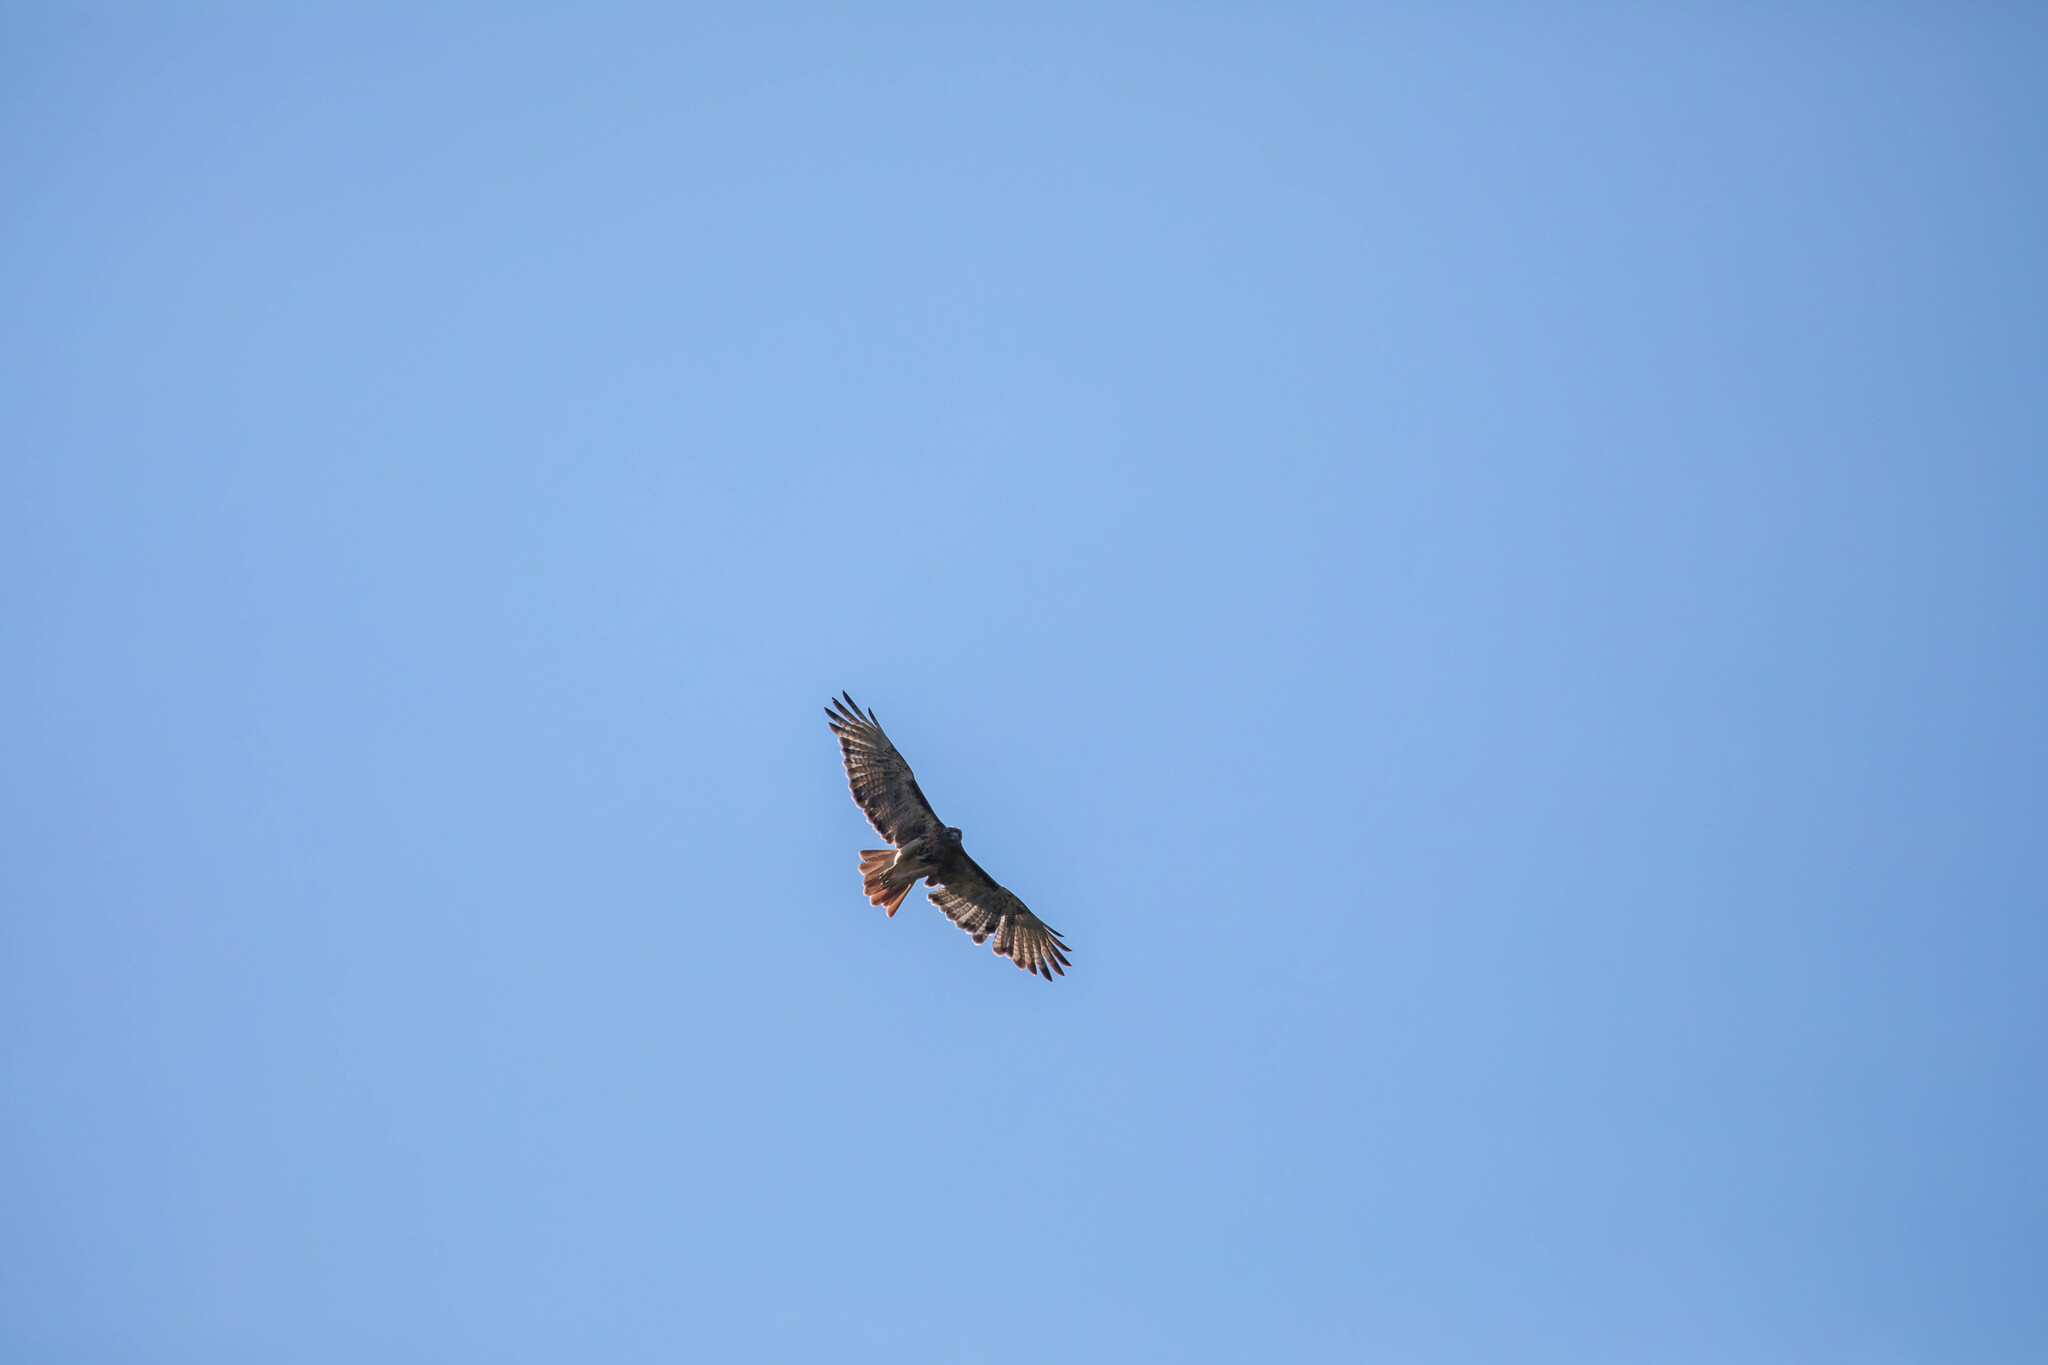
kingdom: Animalia
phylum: Chordata
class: Aves
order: Accipitriformes
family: Accipitridae
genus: Buteo
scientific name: Buteo jamaicensis
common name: Red-tailed hawk
